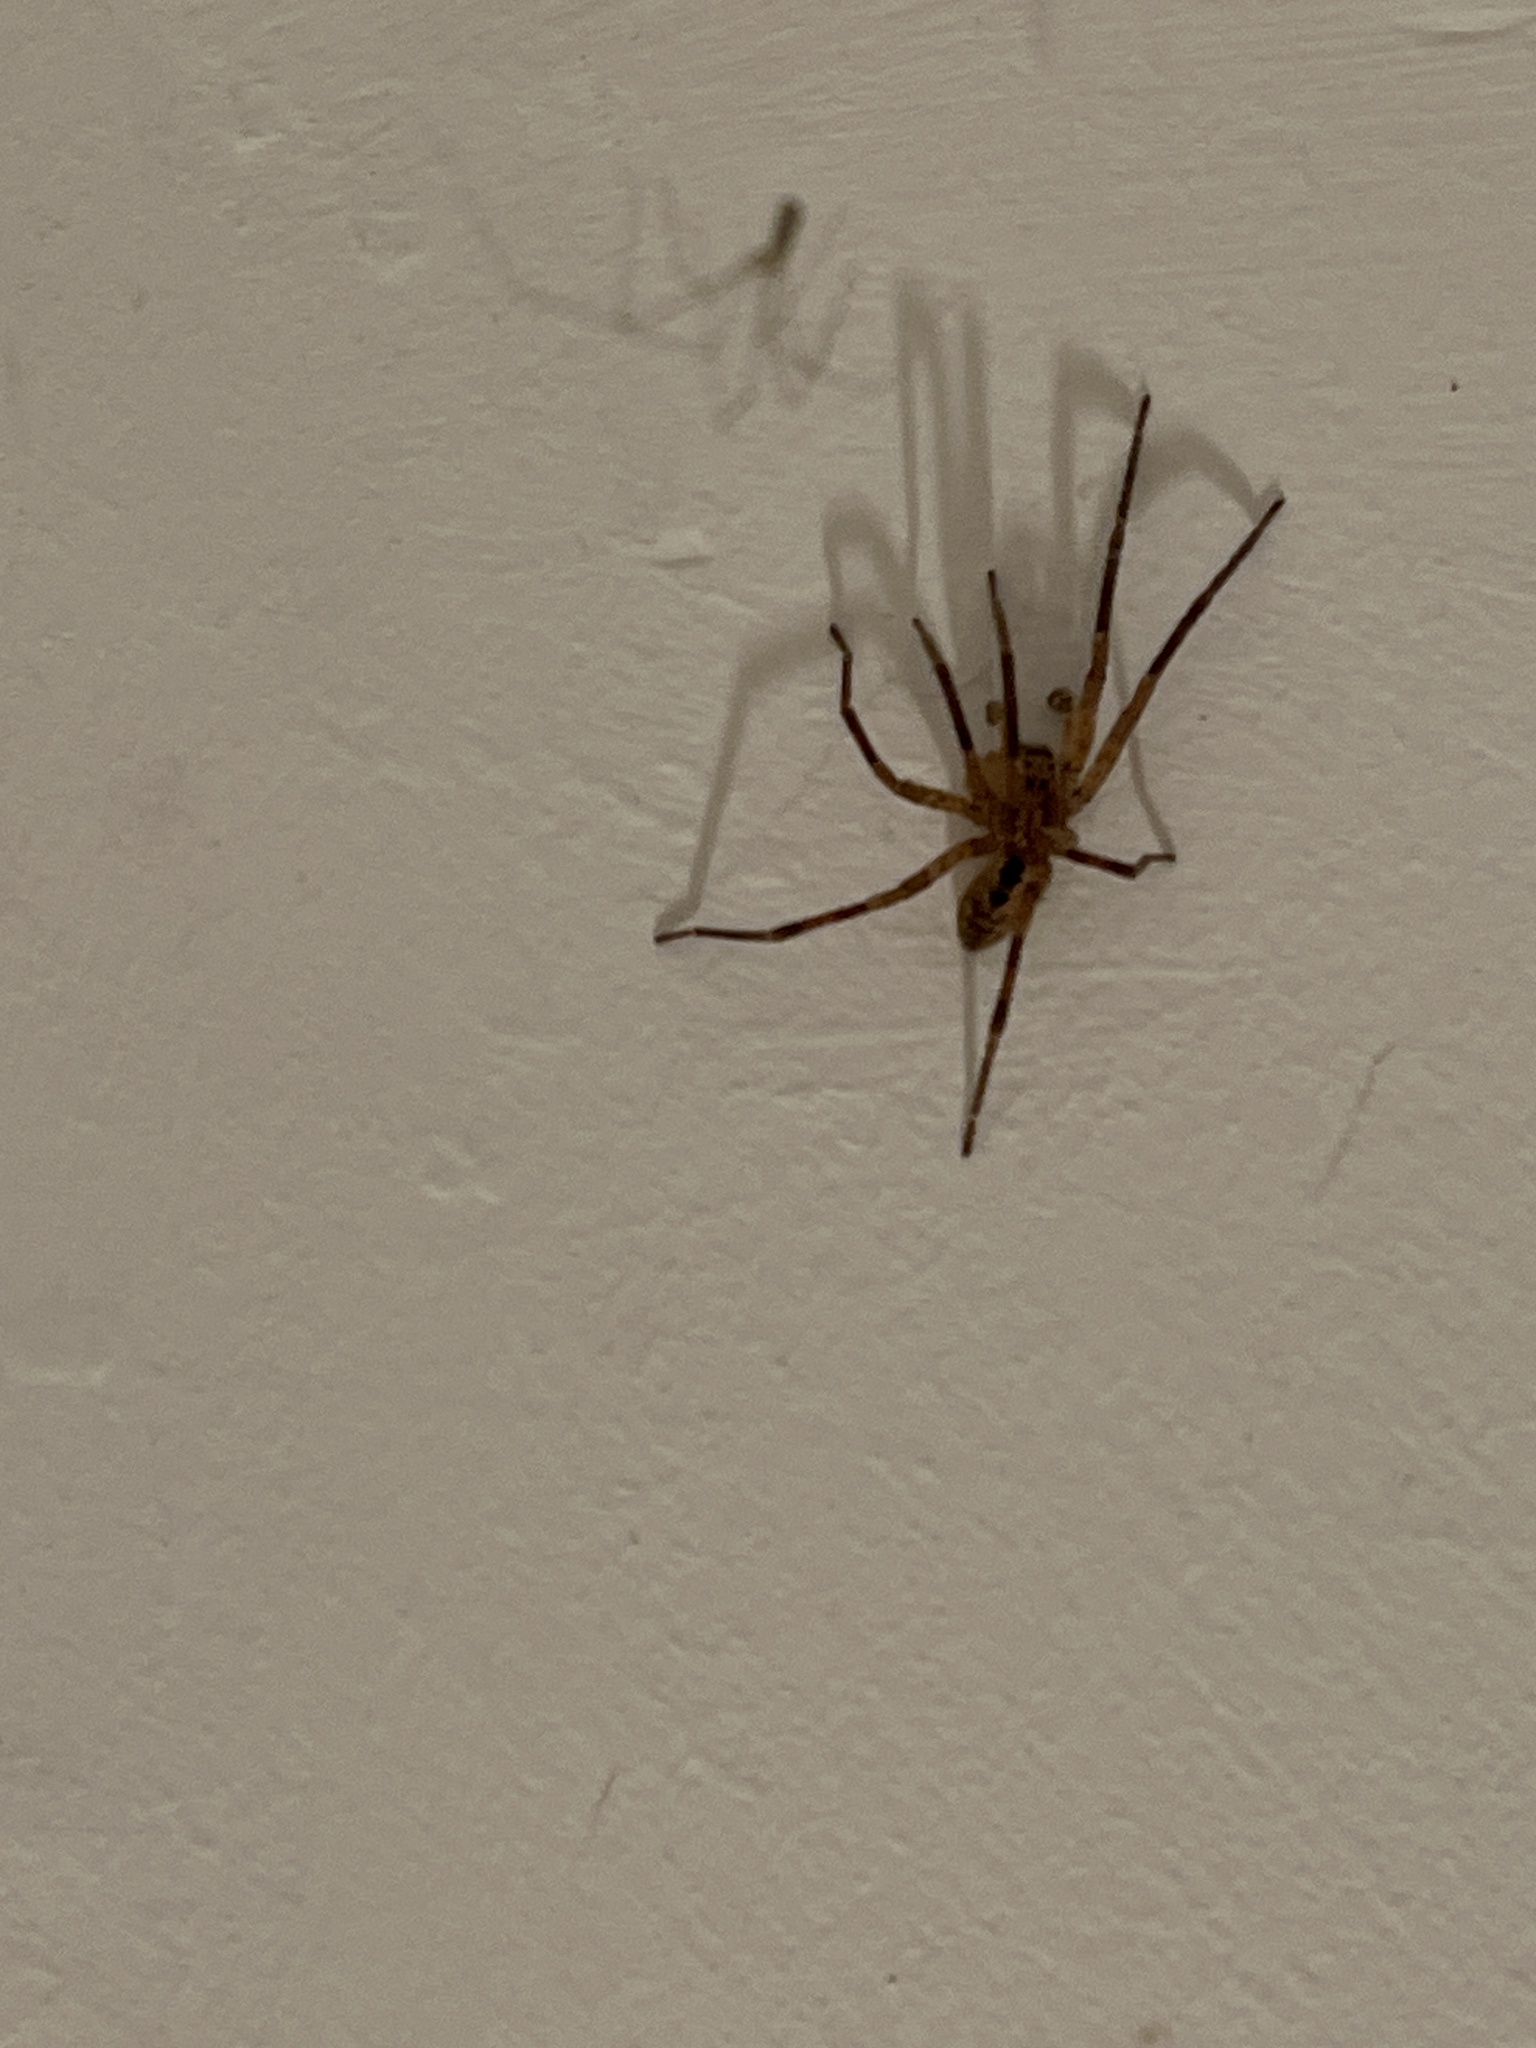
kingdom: Animalia
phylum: Arthropoda
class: Arachnida
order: Araneae
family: Zoropsidae
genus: Zoropsis
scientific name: Zoropsis spinimana
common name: Zoropsid spider
